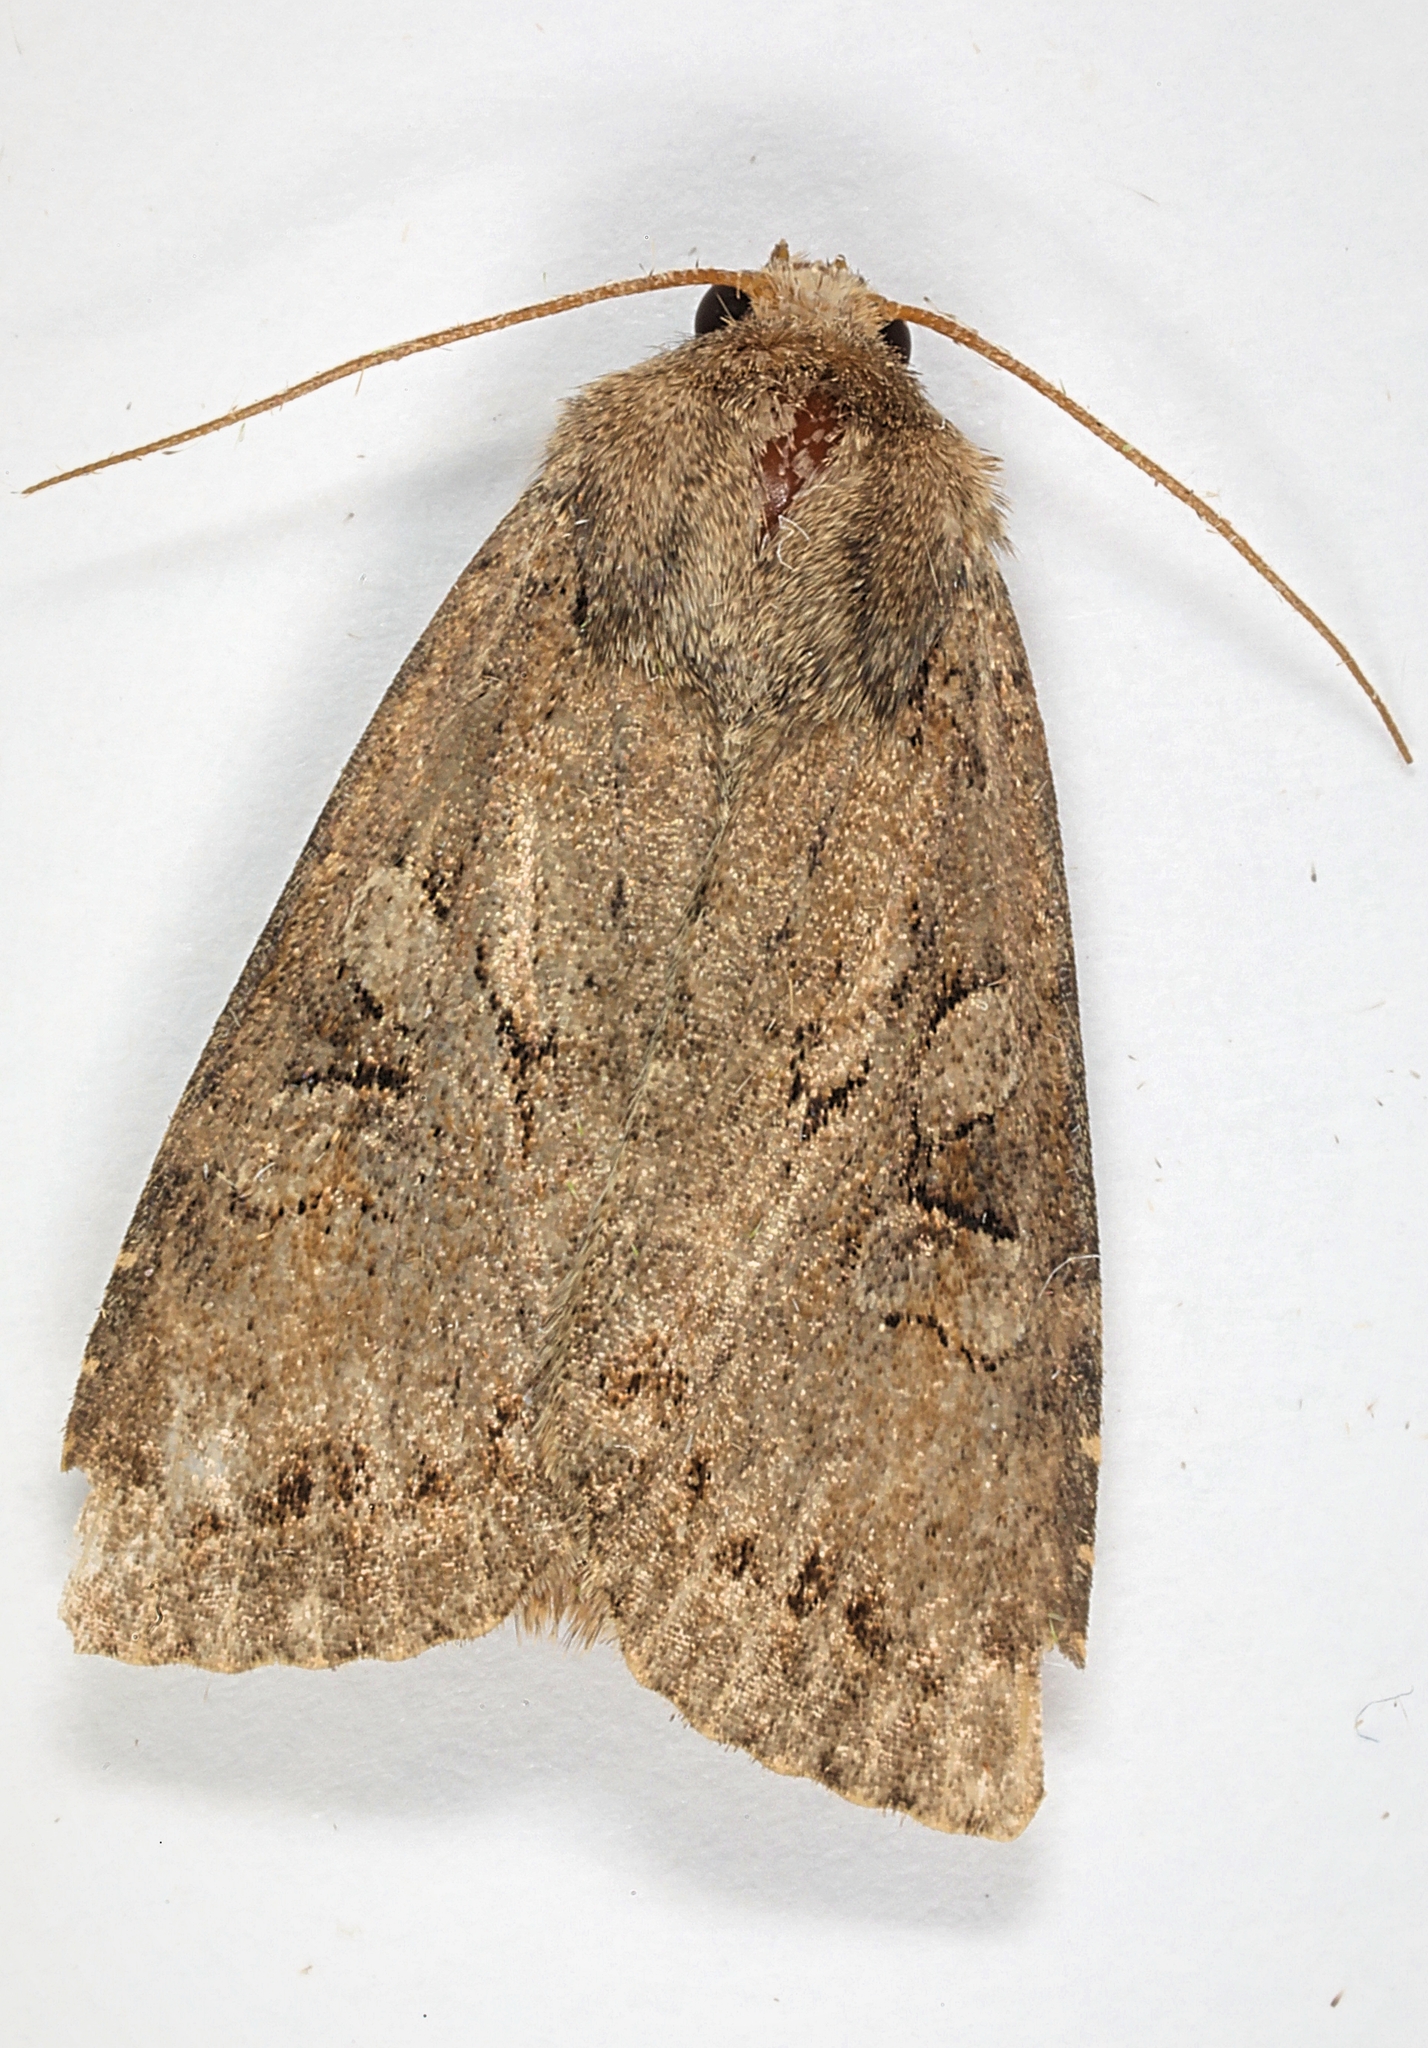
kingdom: Animalia
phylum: Arthropoda
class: Insecta
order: Lepidoptera
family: Noctuidae
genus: Apterogenum
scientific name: Apterogenum ypsillon
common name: Dingy shears
